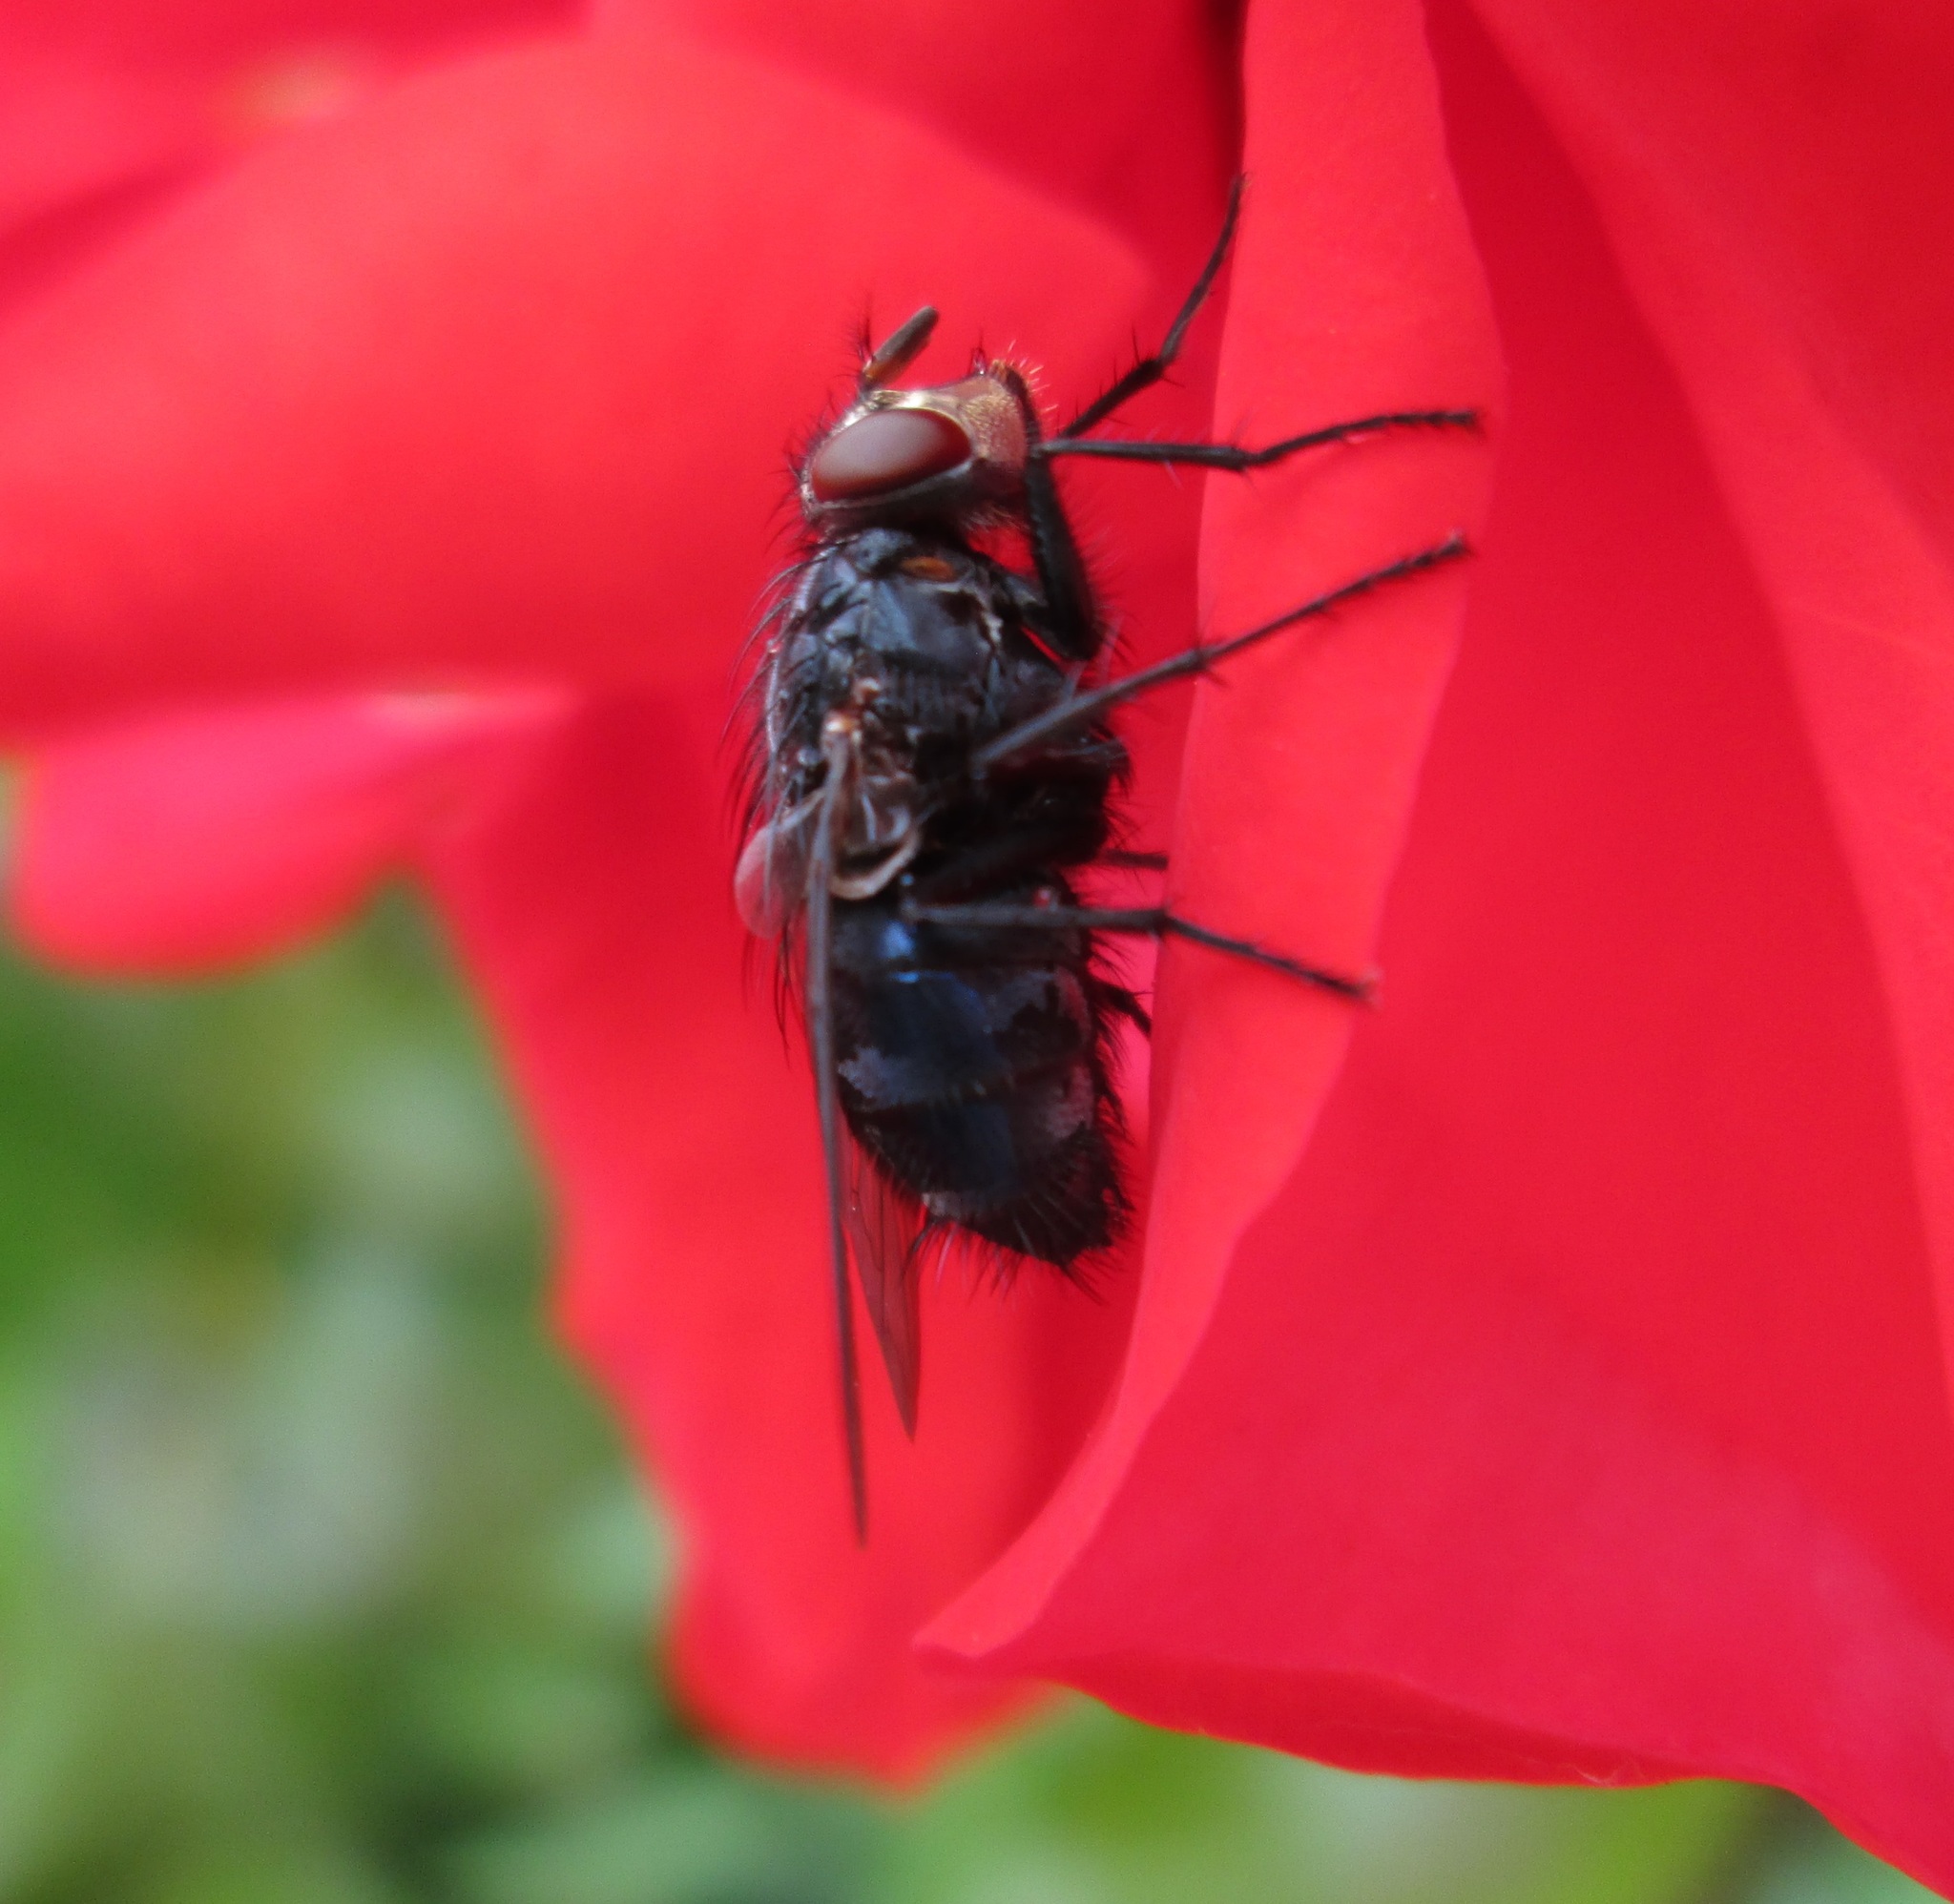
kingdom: Animalia
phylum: Arthropoda
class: Insecta
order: Diptera
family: Calliphoridae
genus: Calliphora
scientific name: Calliphora vicina
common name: Common blow flie
